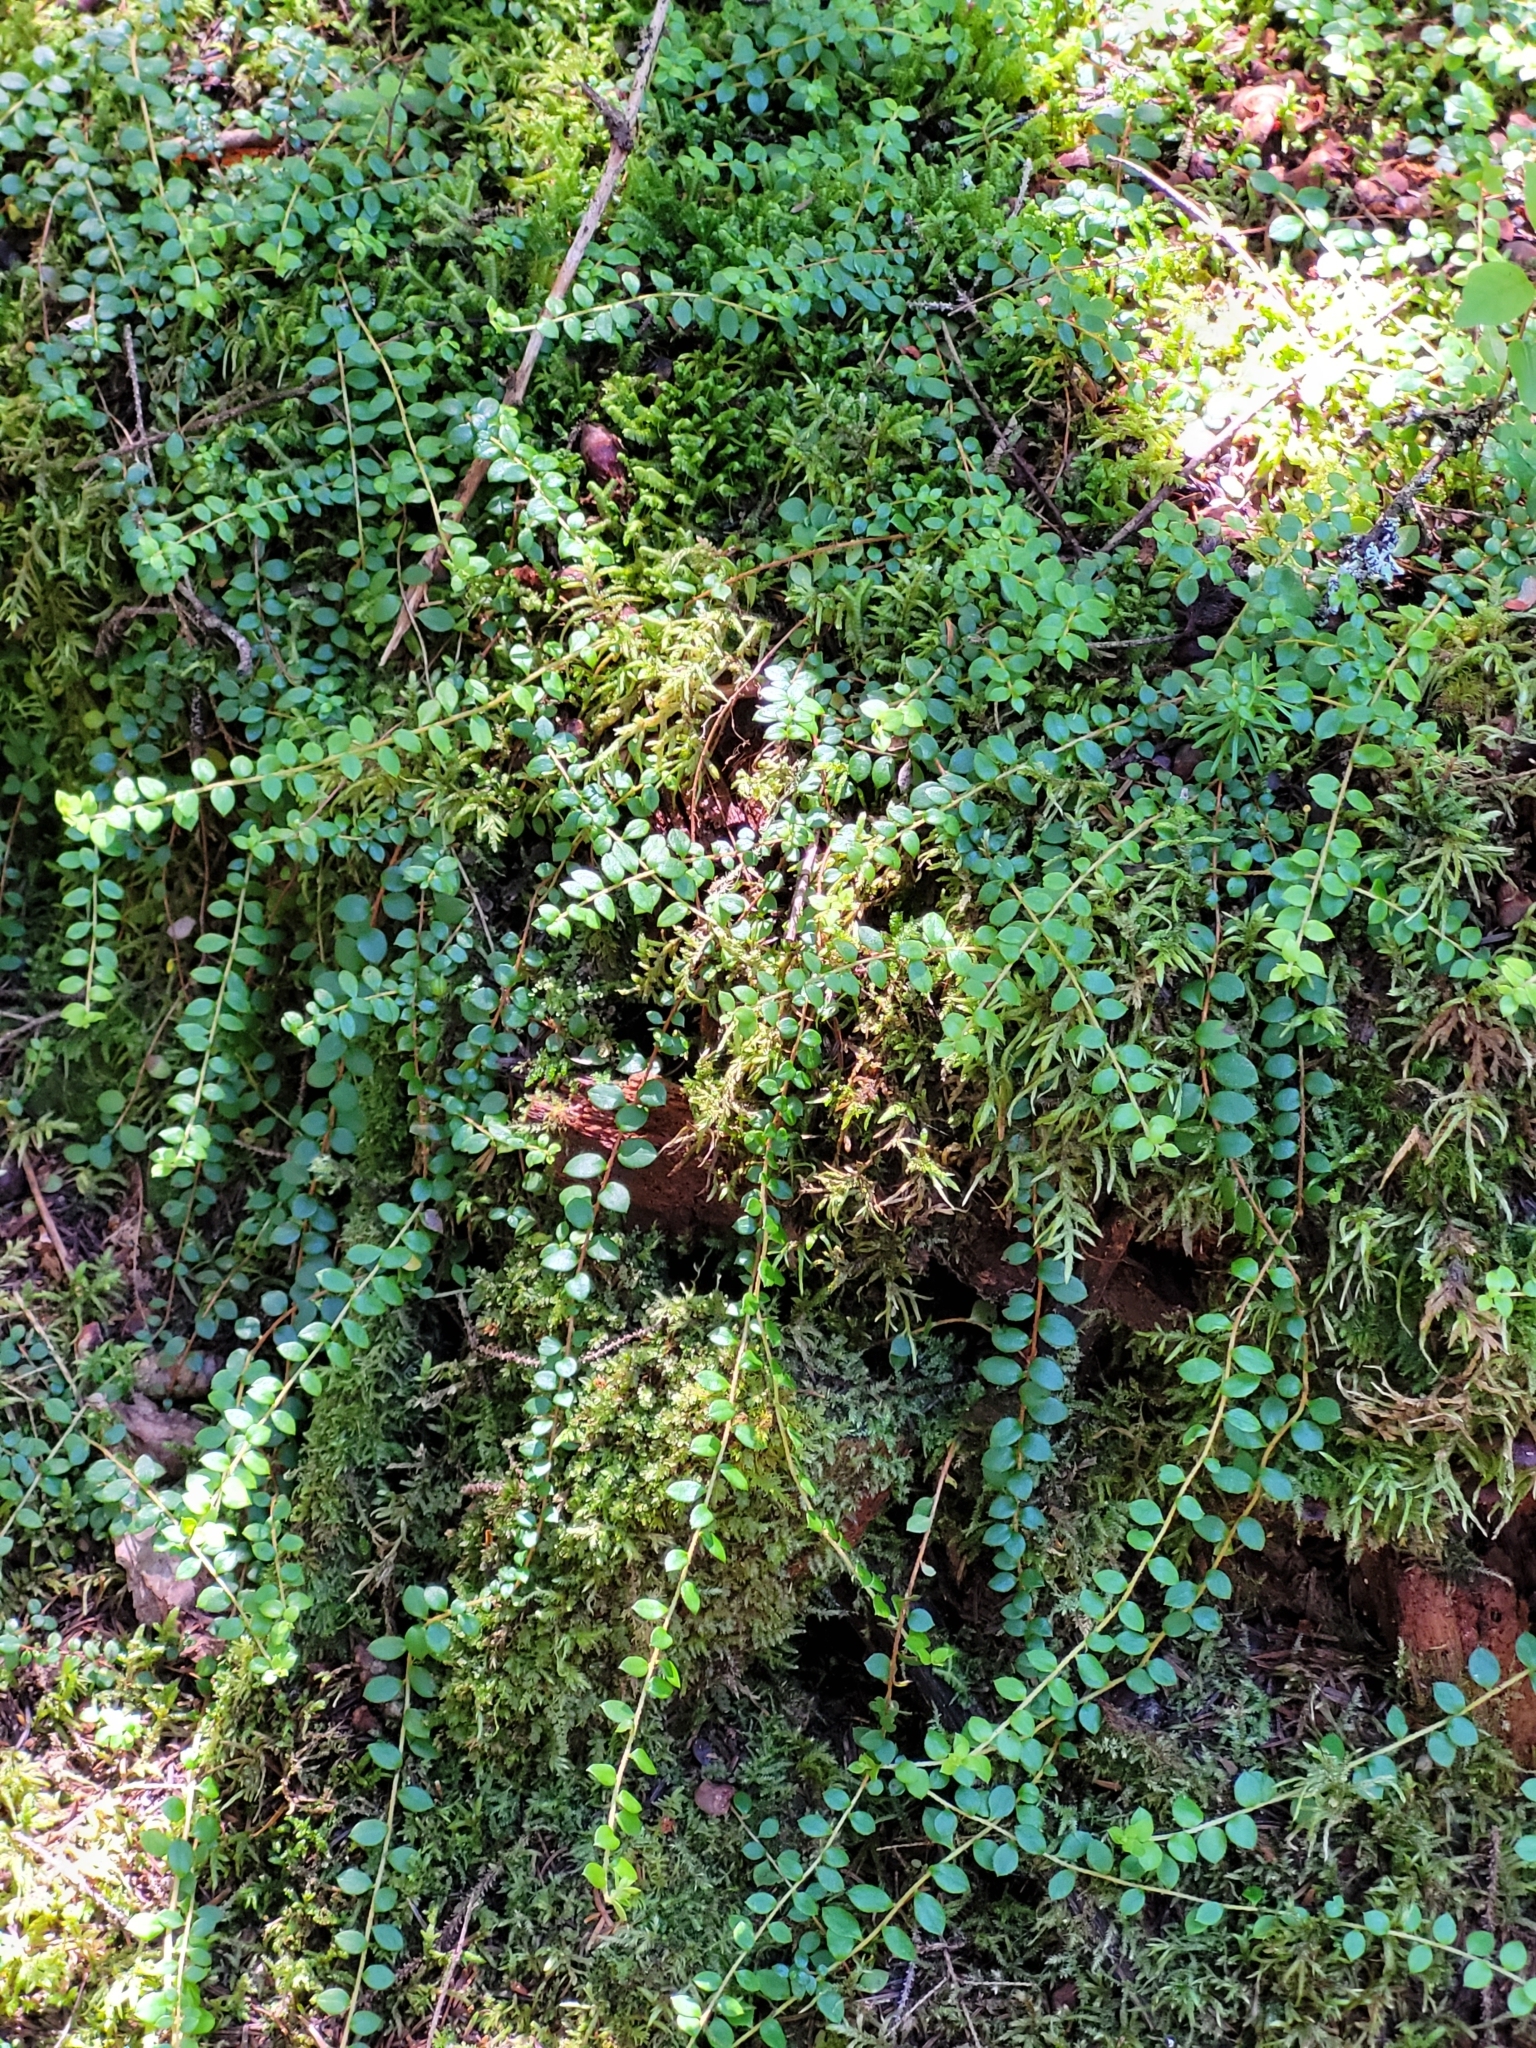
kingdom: Plantae
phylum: Tracheophyta
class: Magnoliopsida
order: Ericales
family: Ericaceae
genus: Gaultheria
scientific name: Gaultheria hispidula
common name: Cancer wintergreen
